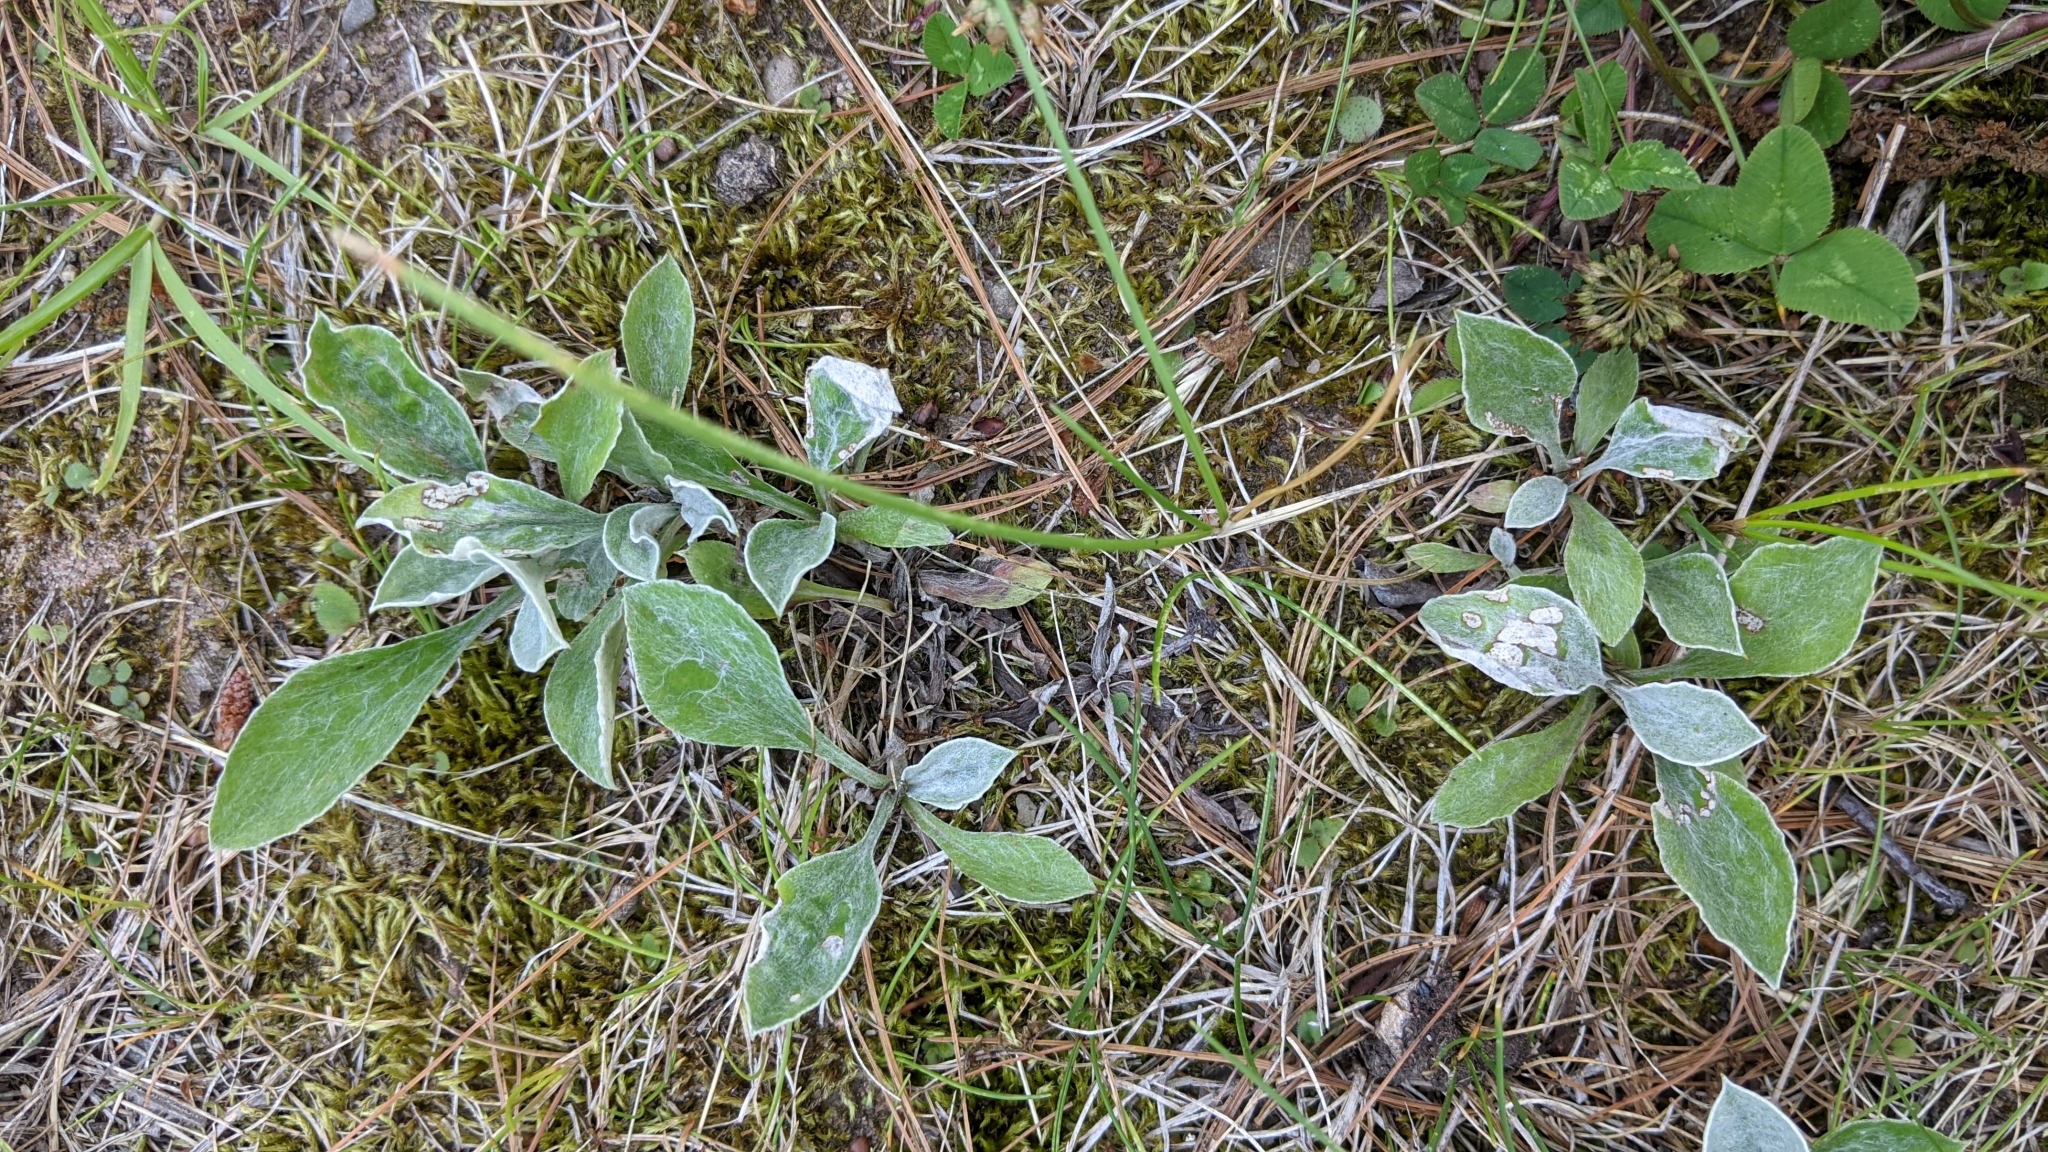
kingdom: Plantae
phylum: Tracheophyta
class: Magnoliopsida
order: Asterales
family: Asteraceae
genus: Antennaria
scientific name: Antennaria parlinii
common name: Parlin's pussytoes
